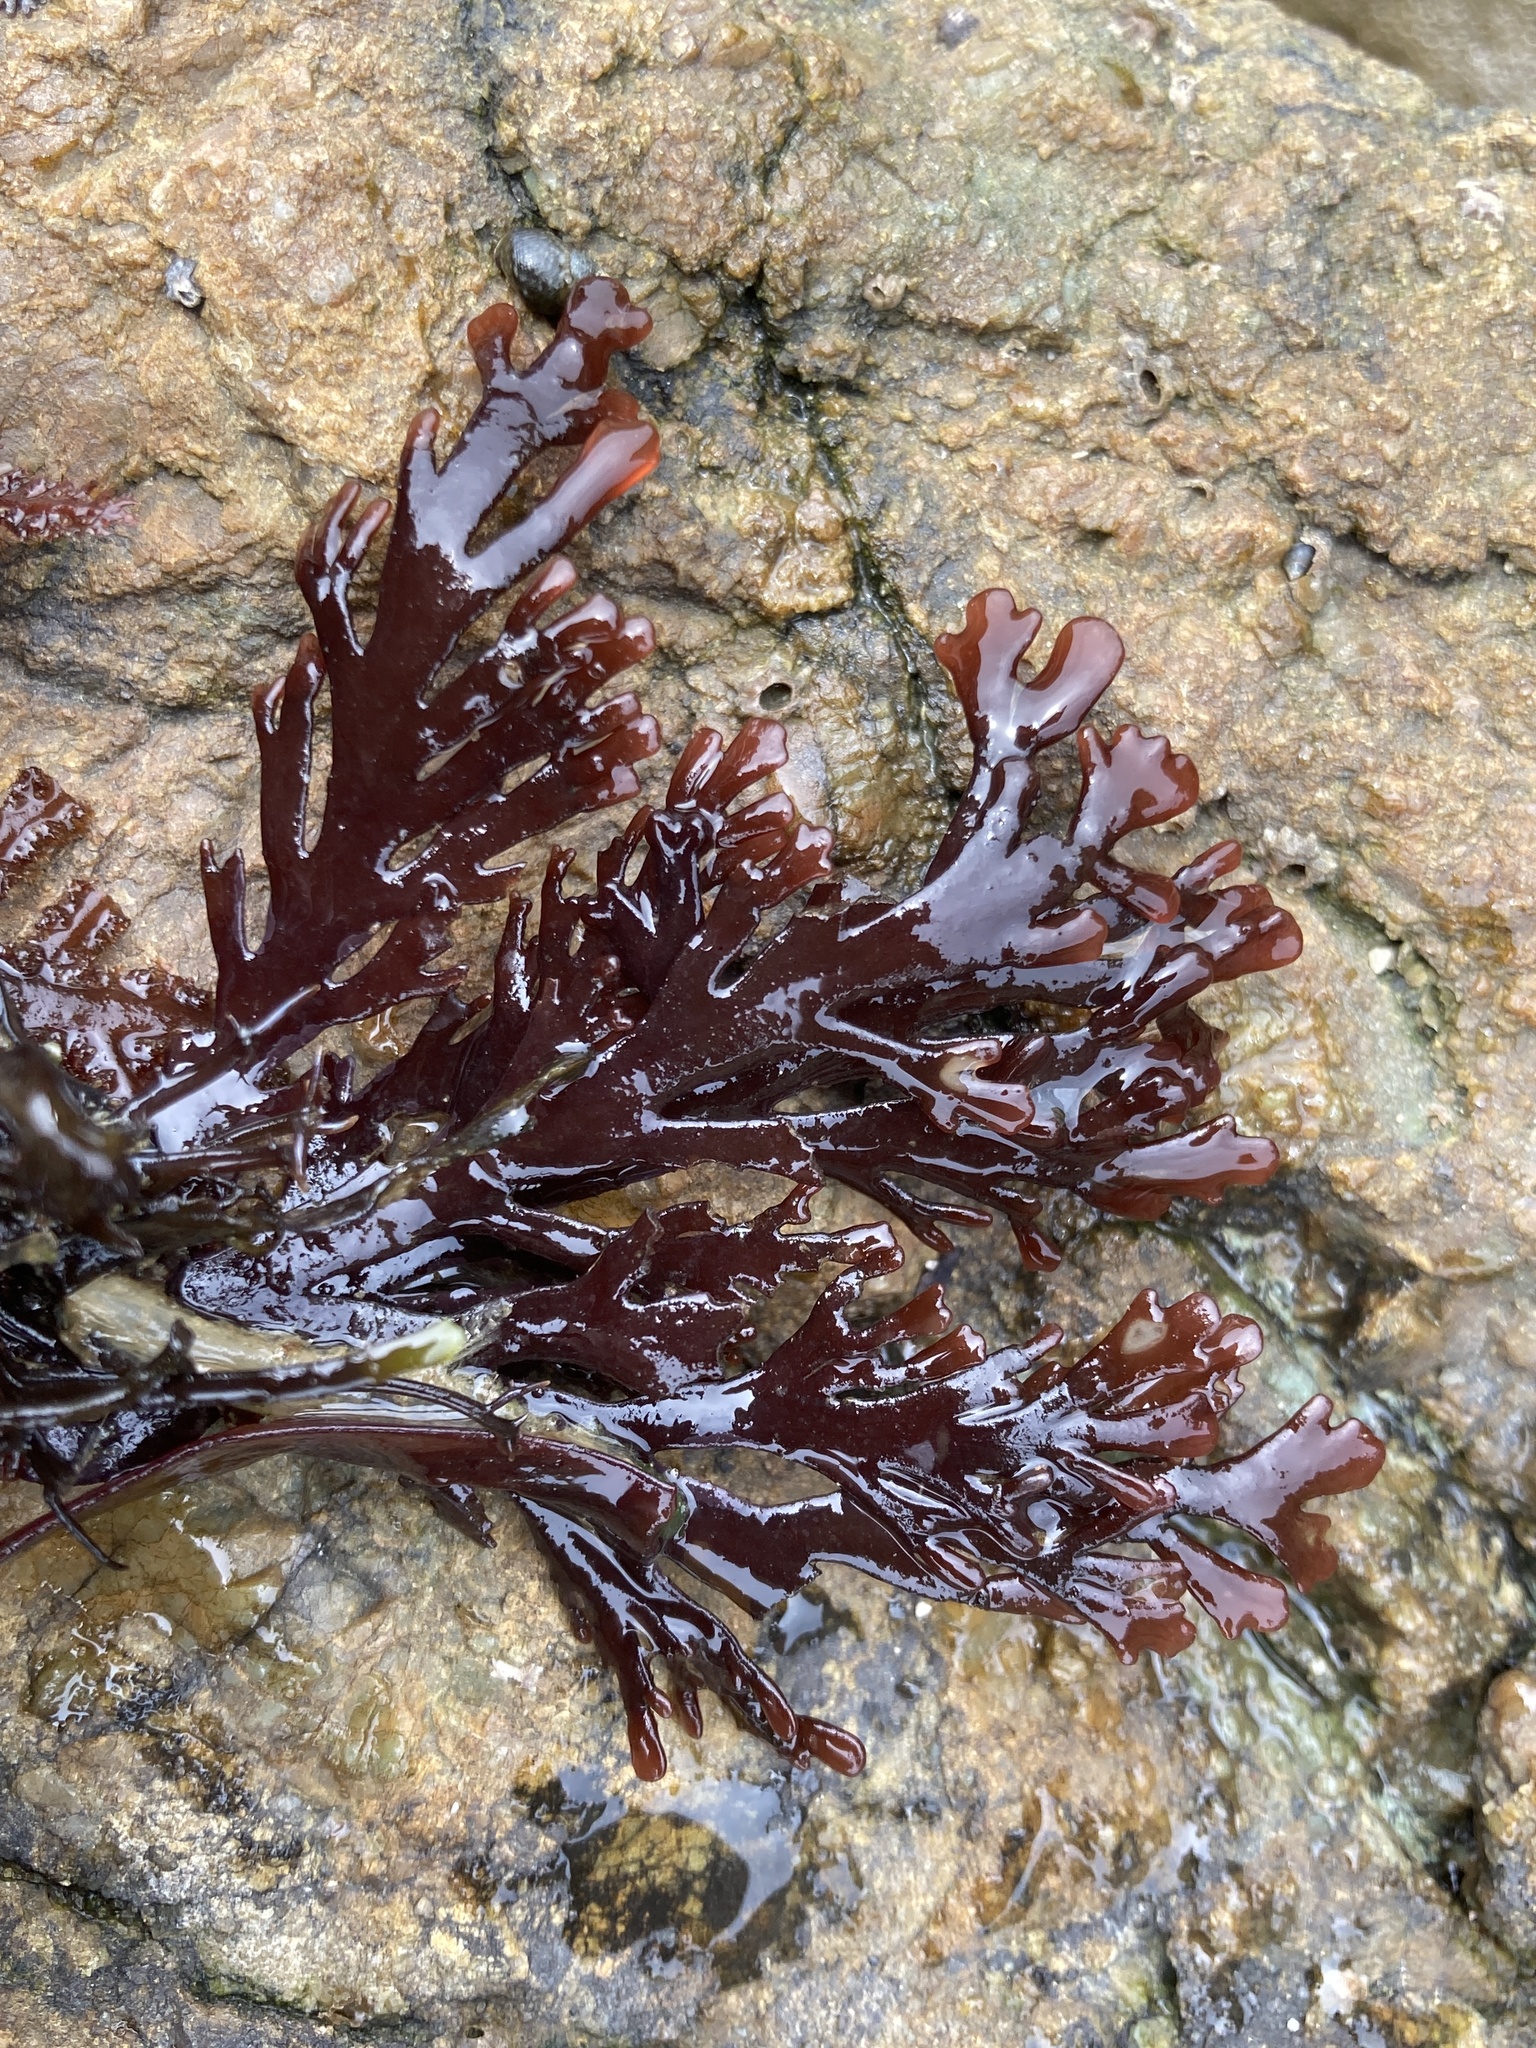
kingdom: Plantae
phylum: Rhodophyta
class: Florideophyceae
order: Ceramiales
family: Rhodomelaceae
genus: Osmundea
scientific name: Osmundea spectabilis
